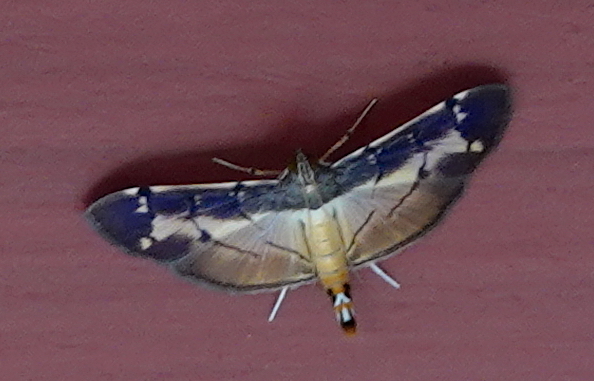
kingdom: Animalia
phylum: Arthropoda
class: Insecta
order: Lepidoptera
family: Crambidae
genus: Bacotoma
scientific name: Bacotoma violata
